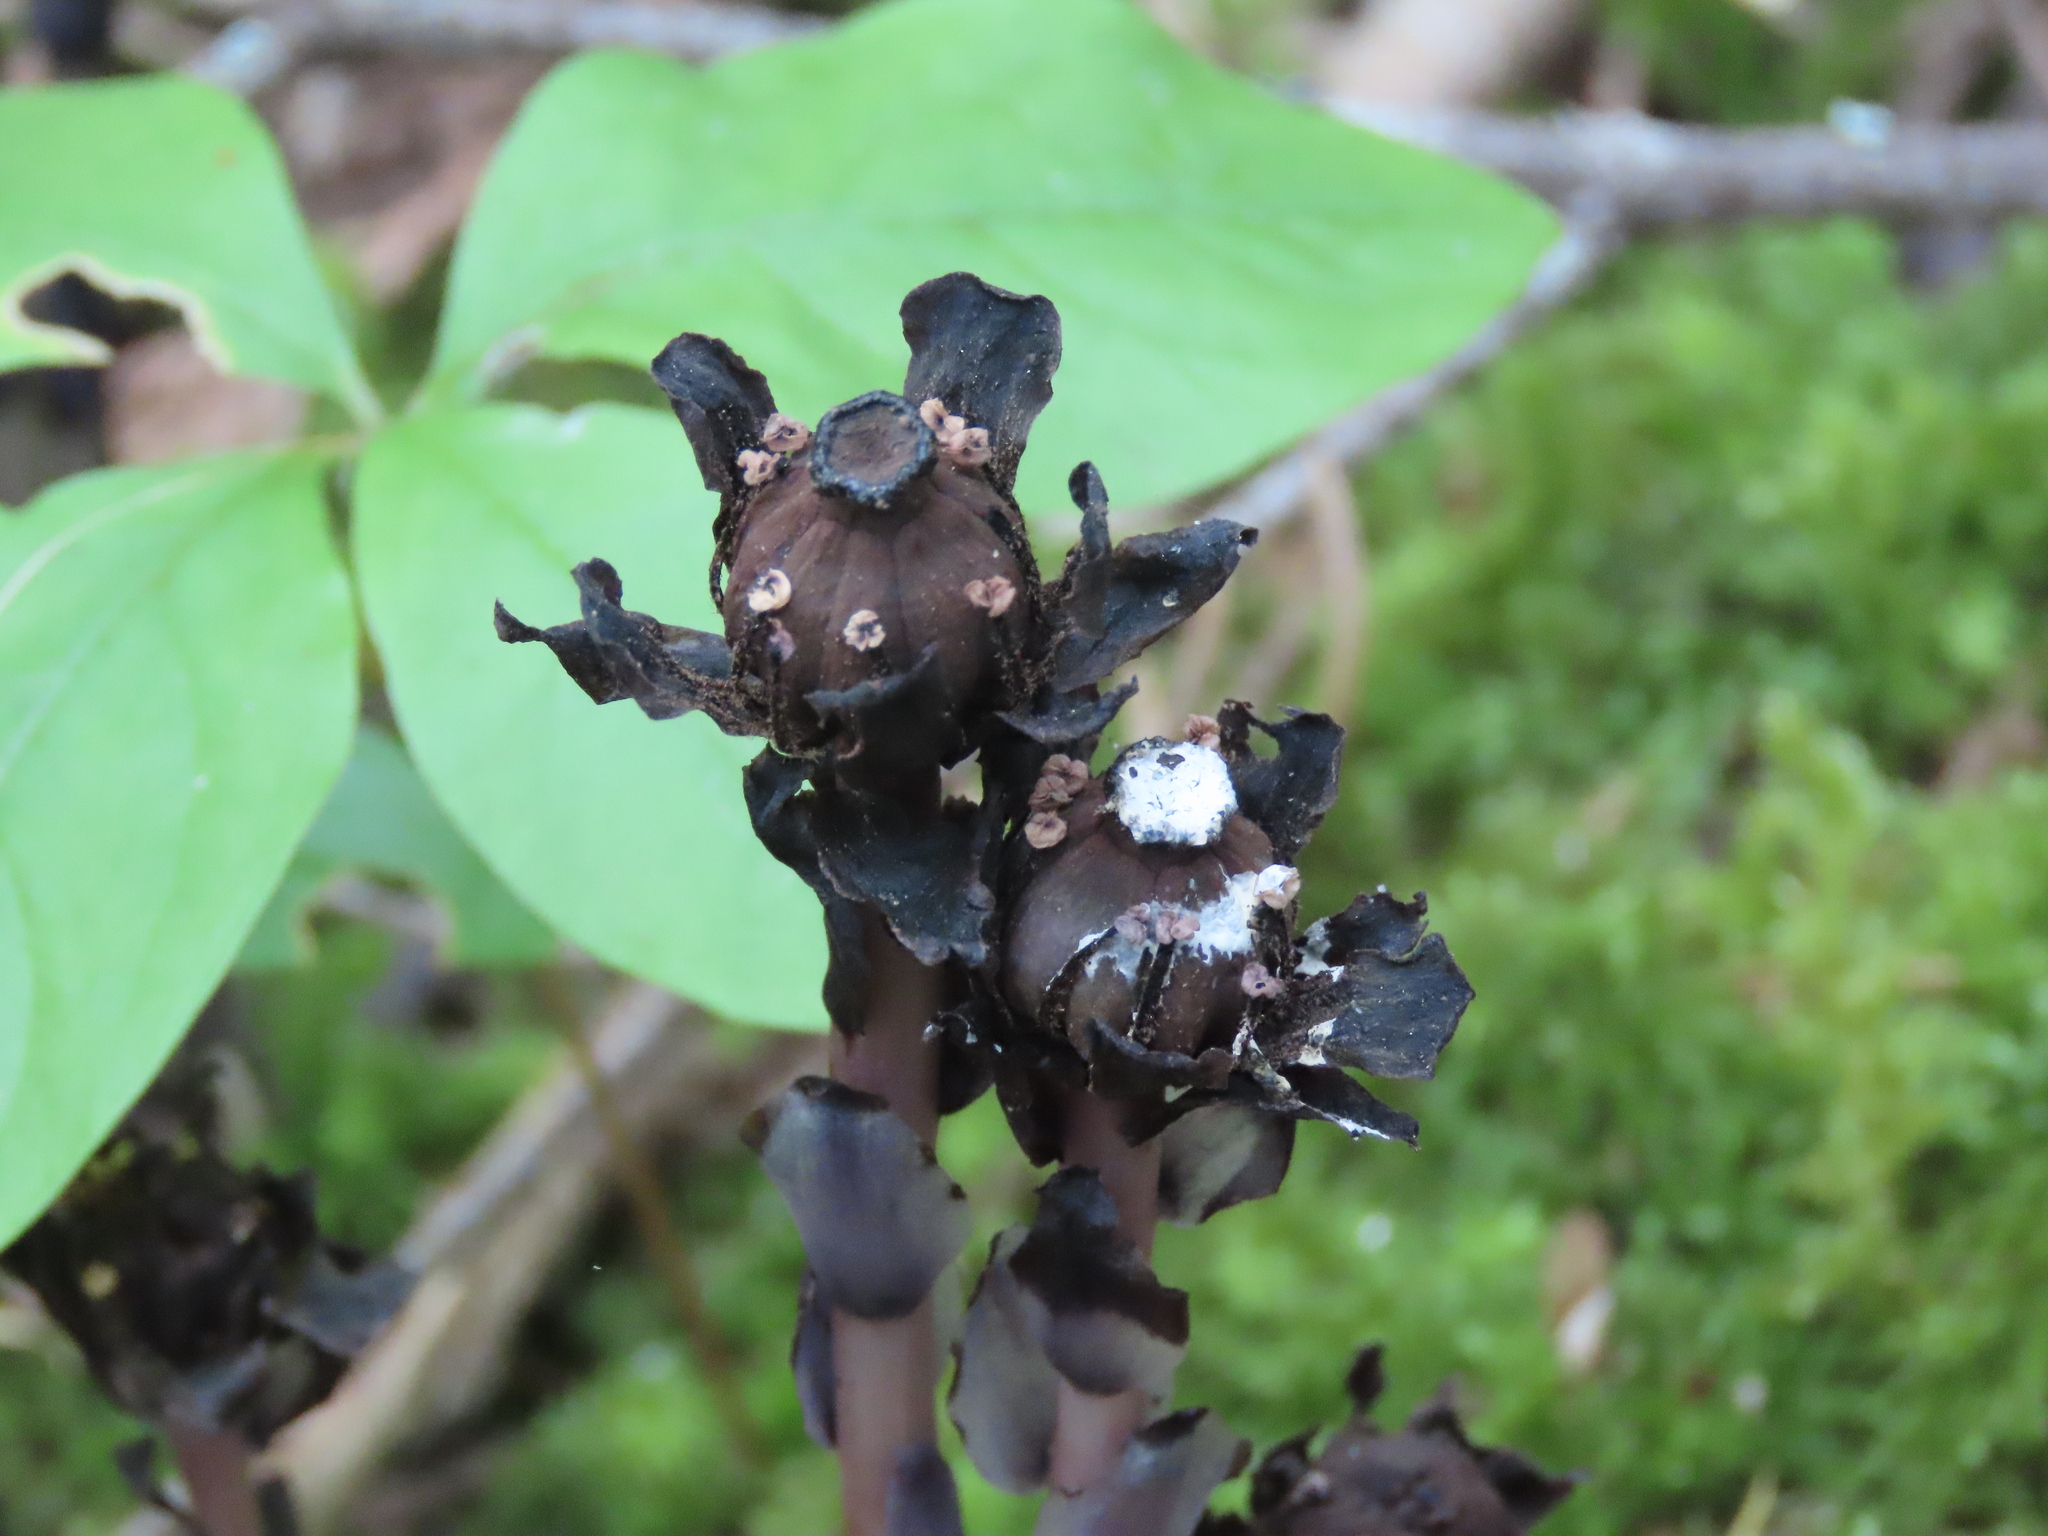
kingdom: Plantae
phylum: Tracheophyta
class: Magnoliopsida
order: Ericales
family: Ericaceae
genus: Monotropa
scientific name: Monotropa uniflora
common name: Convulsion root
